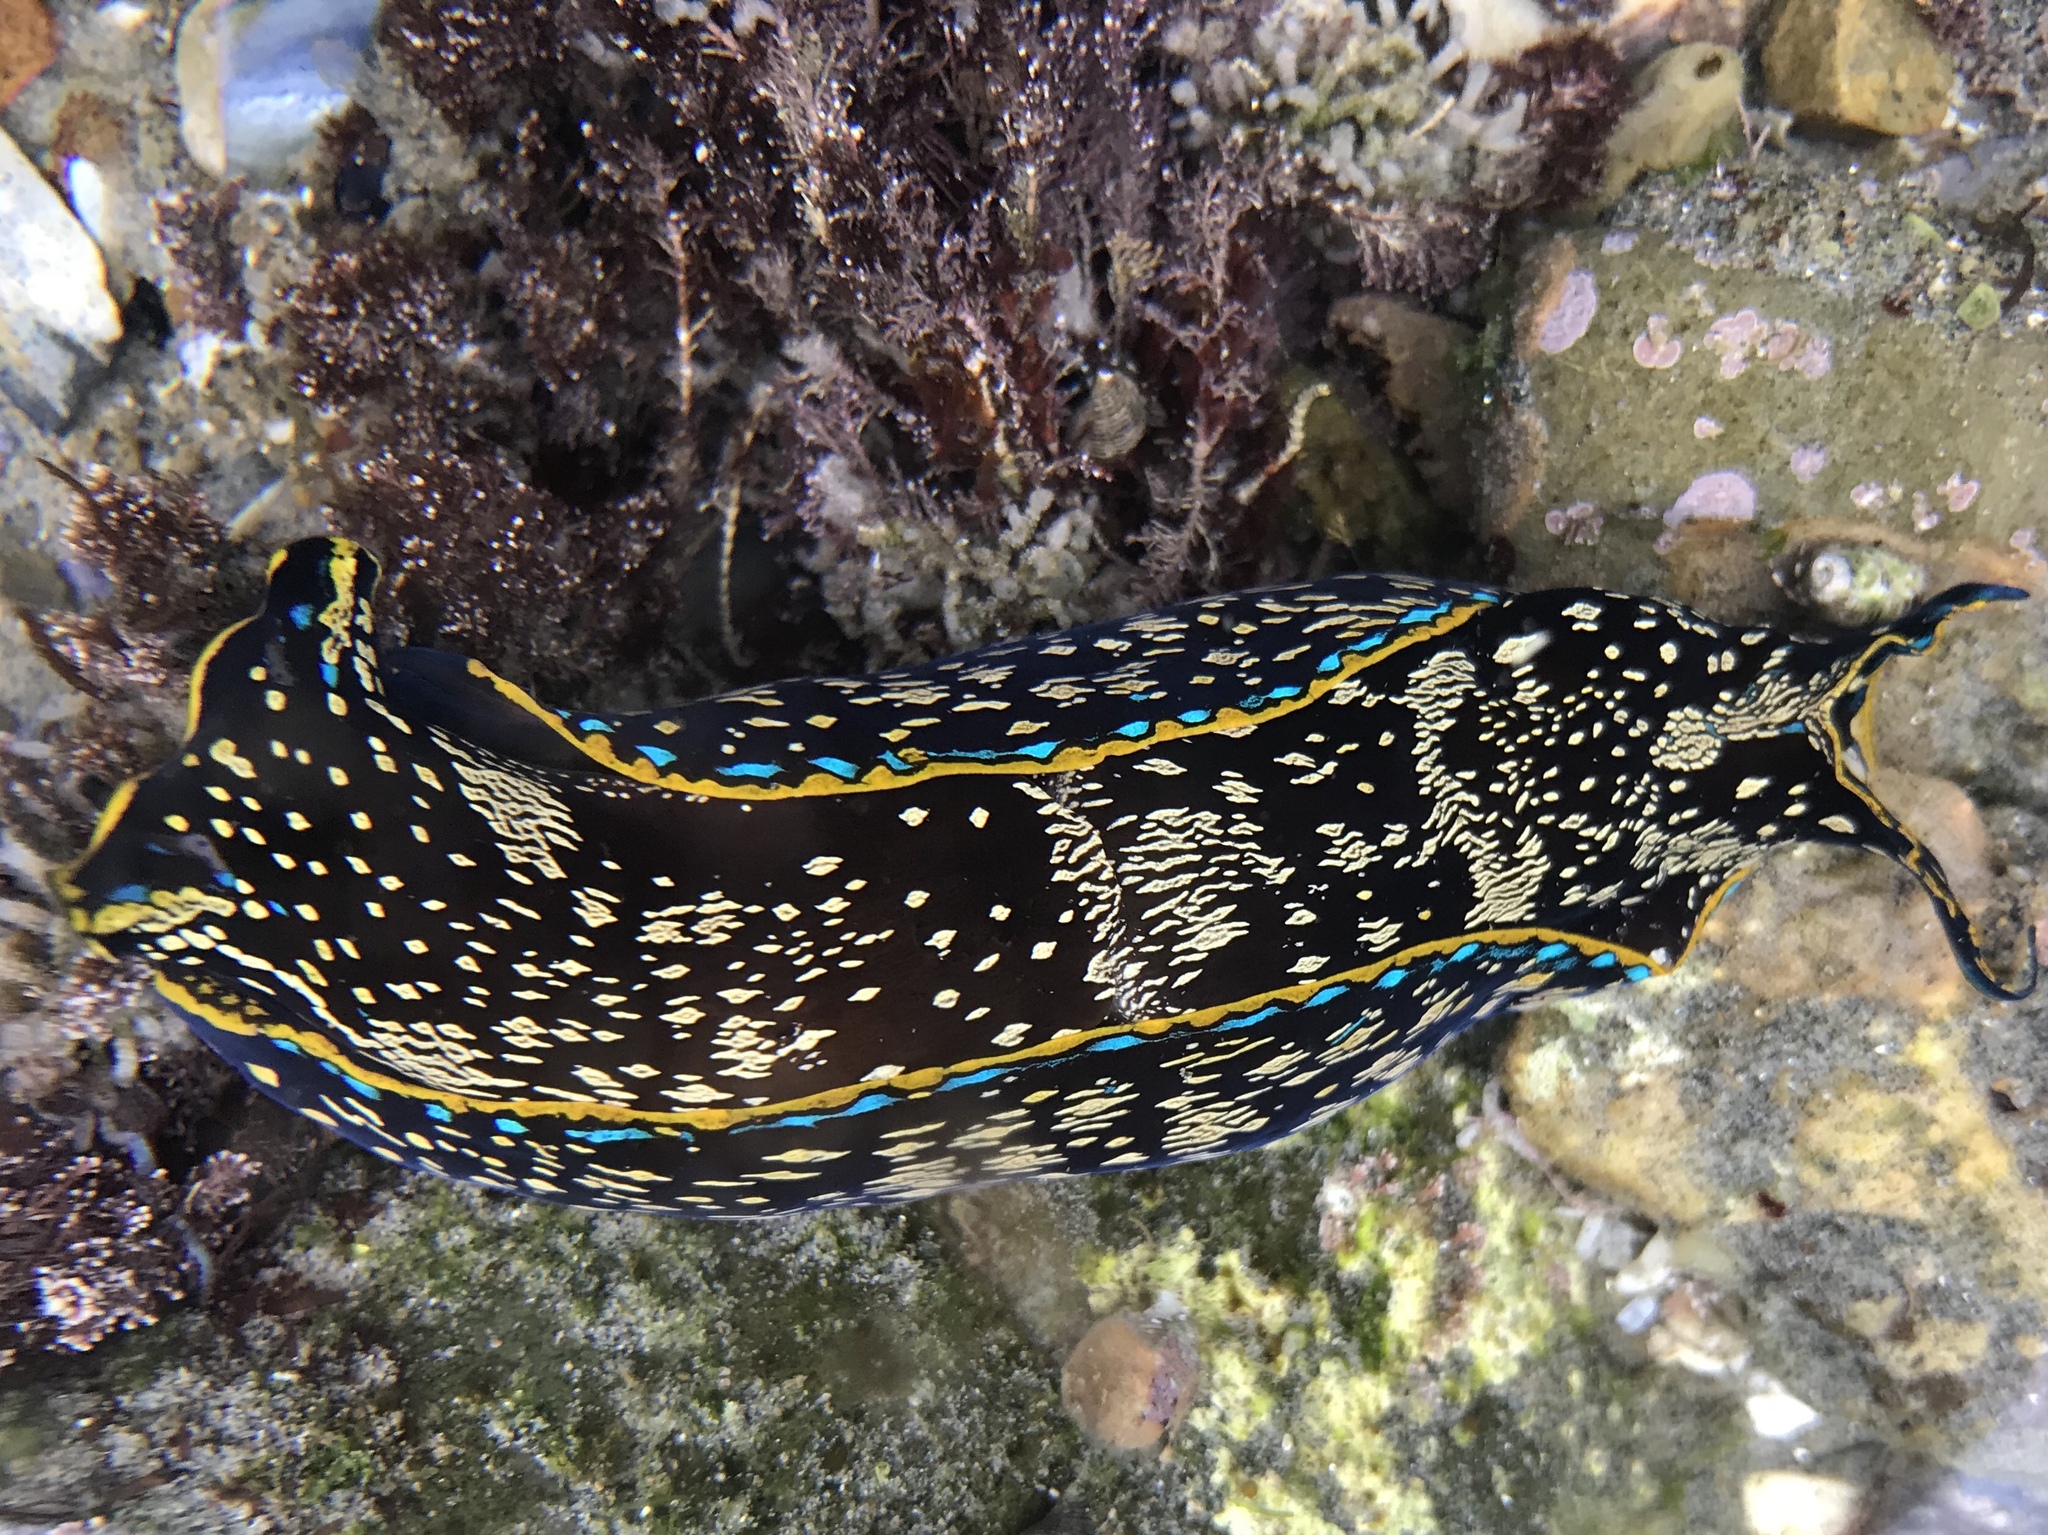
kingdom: Animalia
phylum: Mollusca
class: Gastropoda
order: Cephalaspidea
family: Aglajidae
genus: Navanax
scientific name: Navanax inermis
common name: California aglaja
